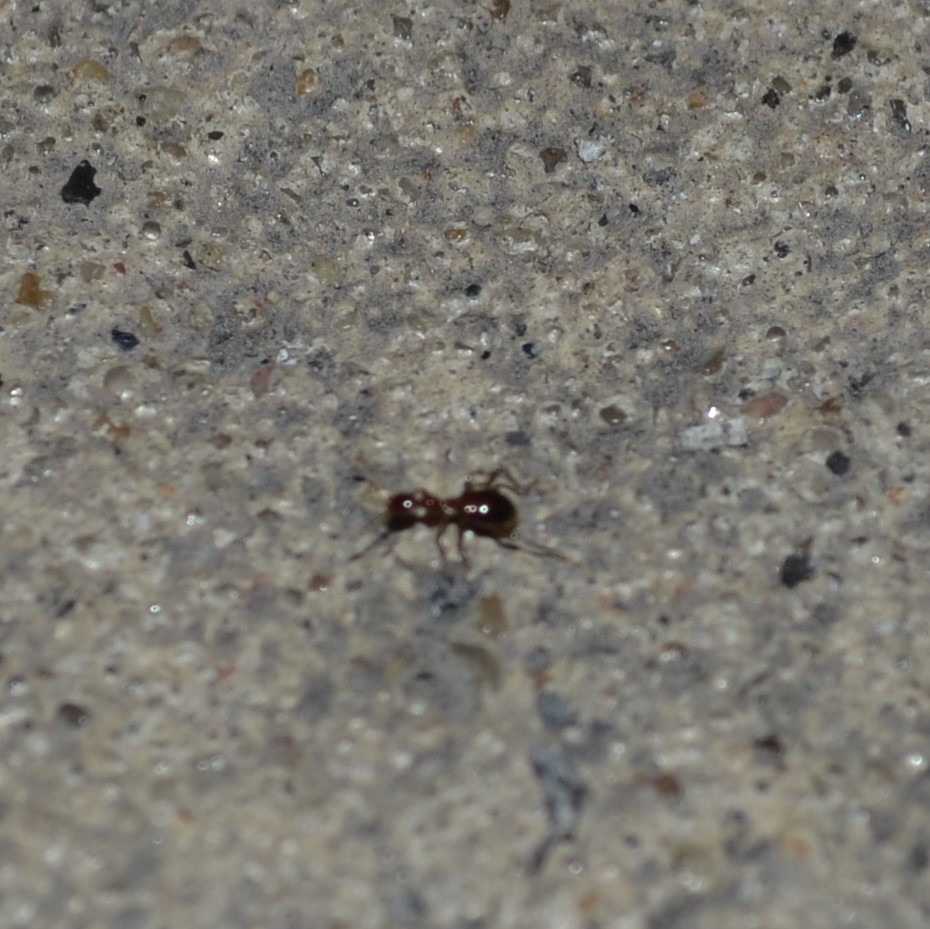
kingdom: Animalia
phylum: Arthropoda
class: Insecta
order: Coleoptera
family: Anthicidae
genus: Acanthinus
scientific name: Acanthinus
